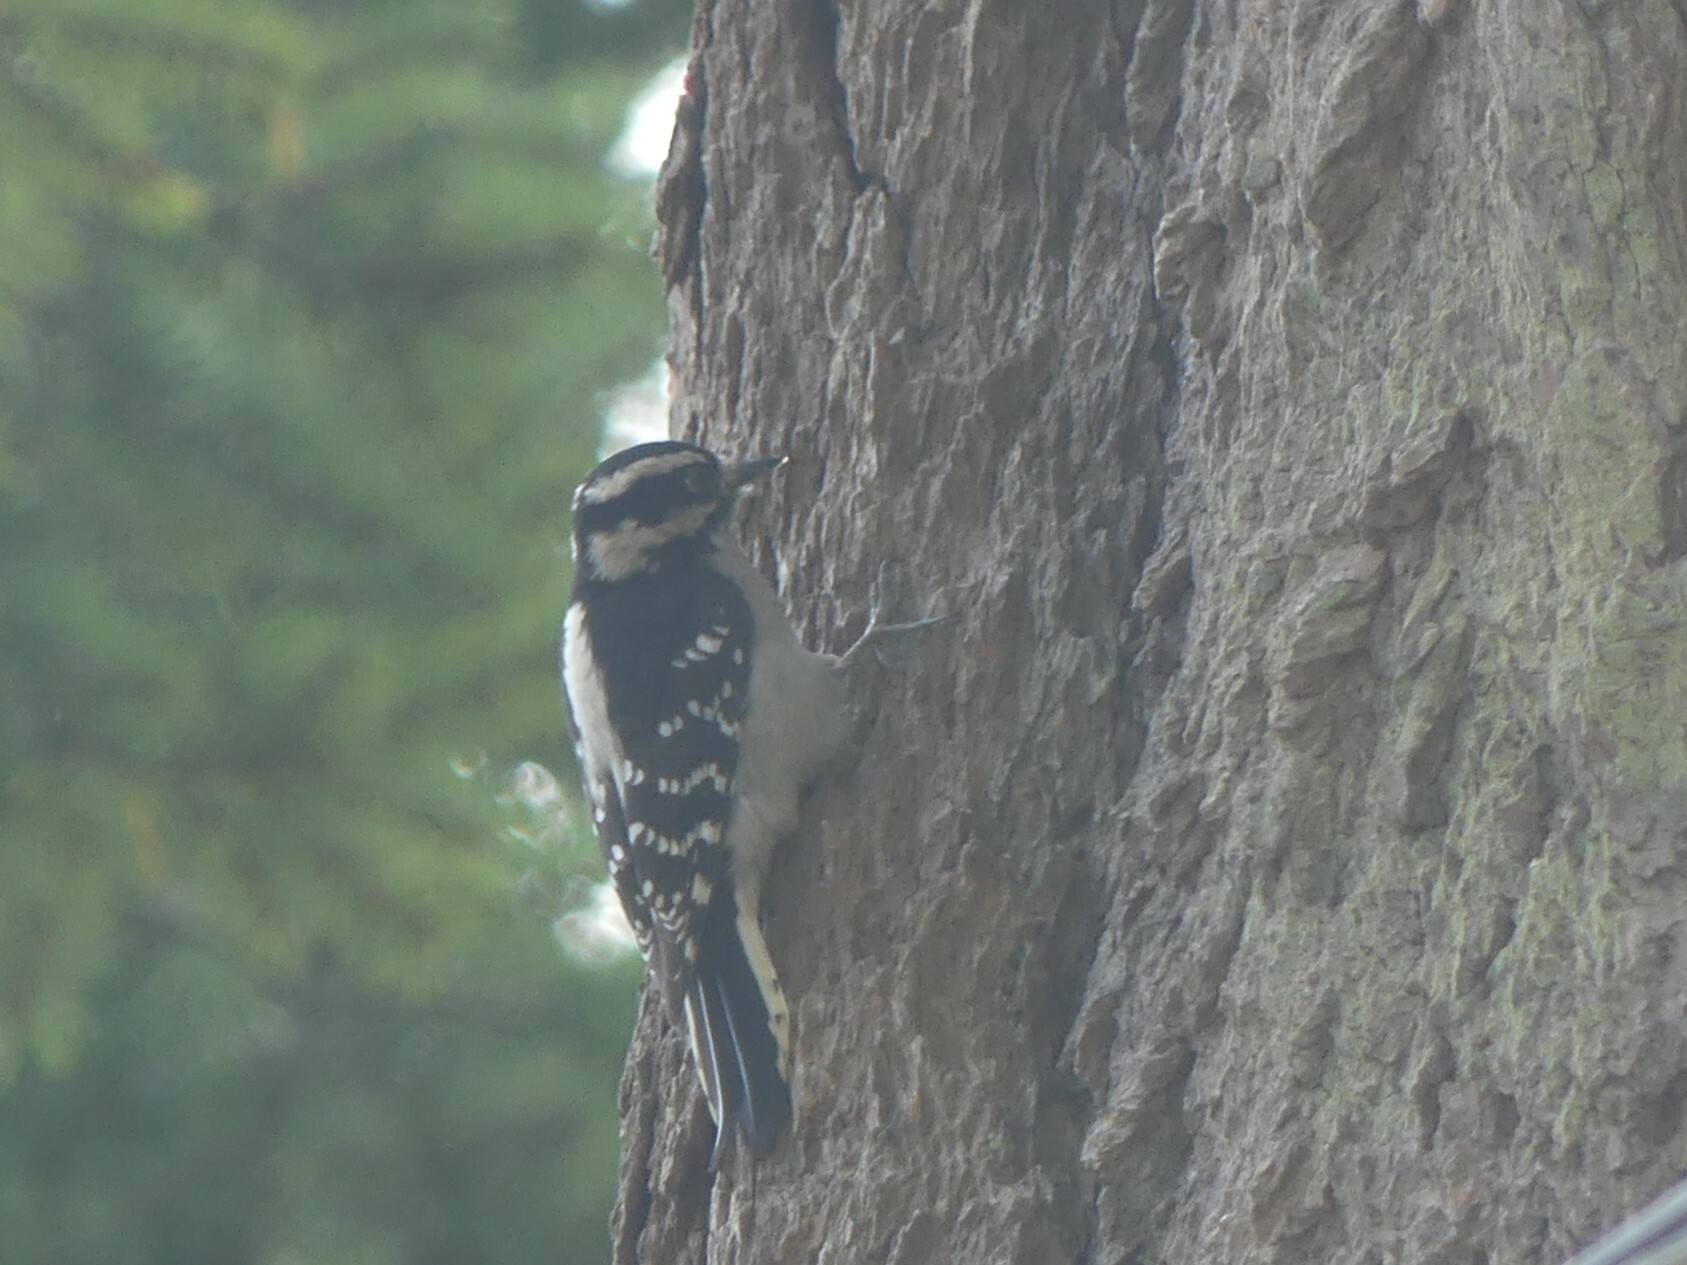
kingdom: Animalia
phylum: Chordata
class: Aves
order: Piciformes
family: Picidae
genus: Dryobates
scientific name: Dryobates pubescens
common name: Downy woodpecker
